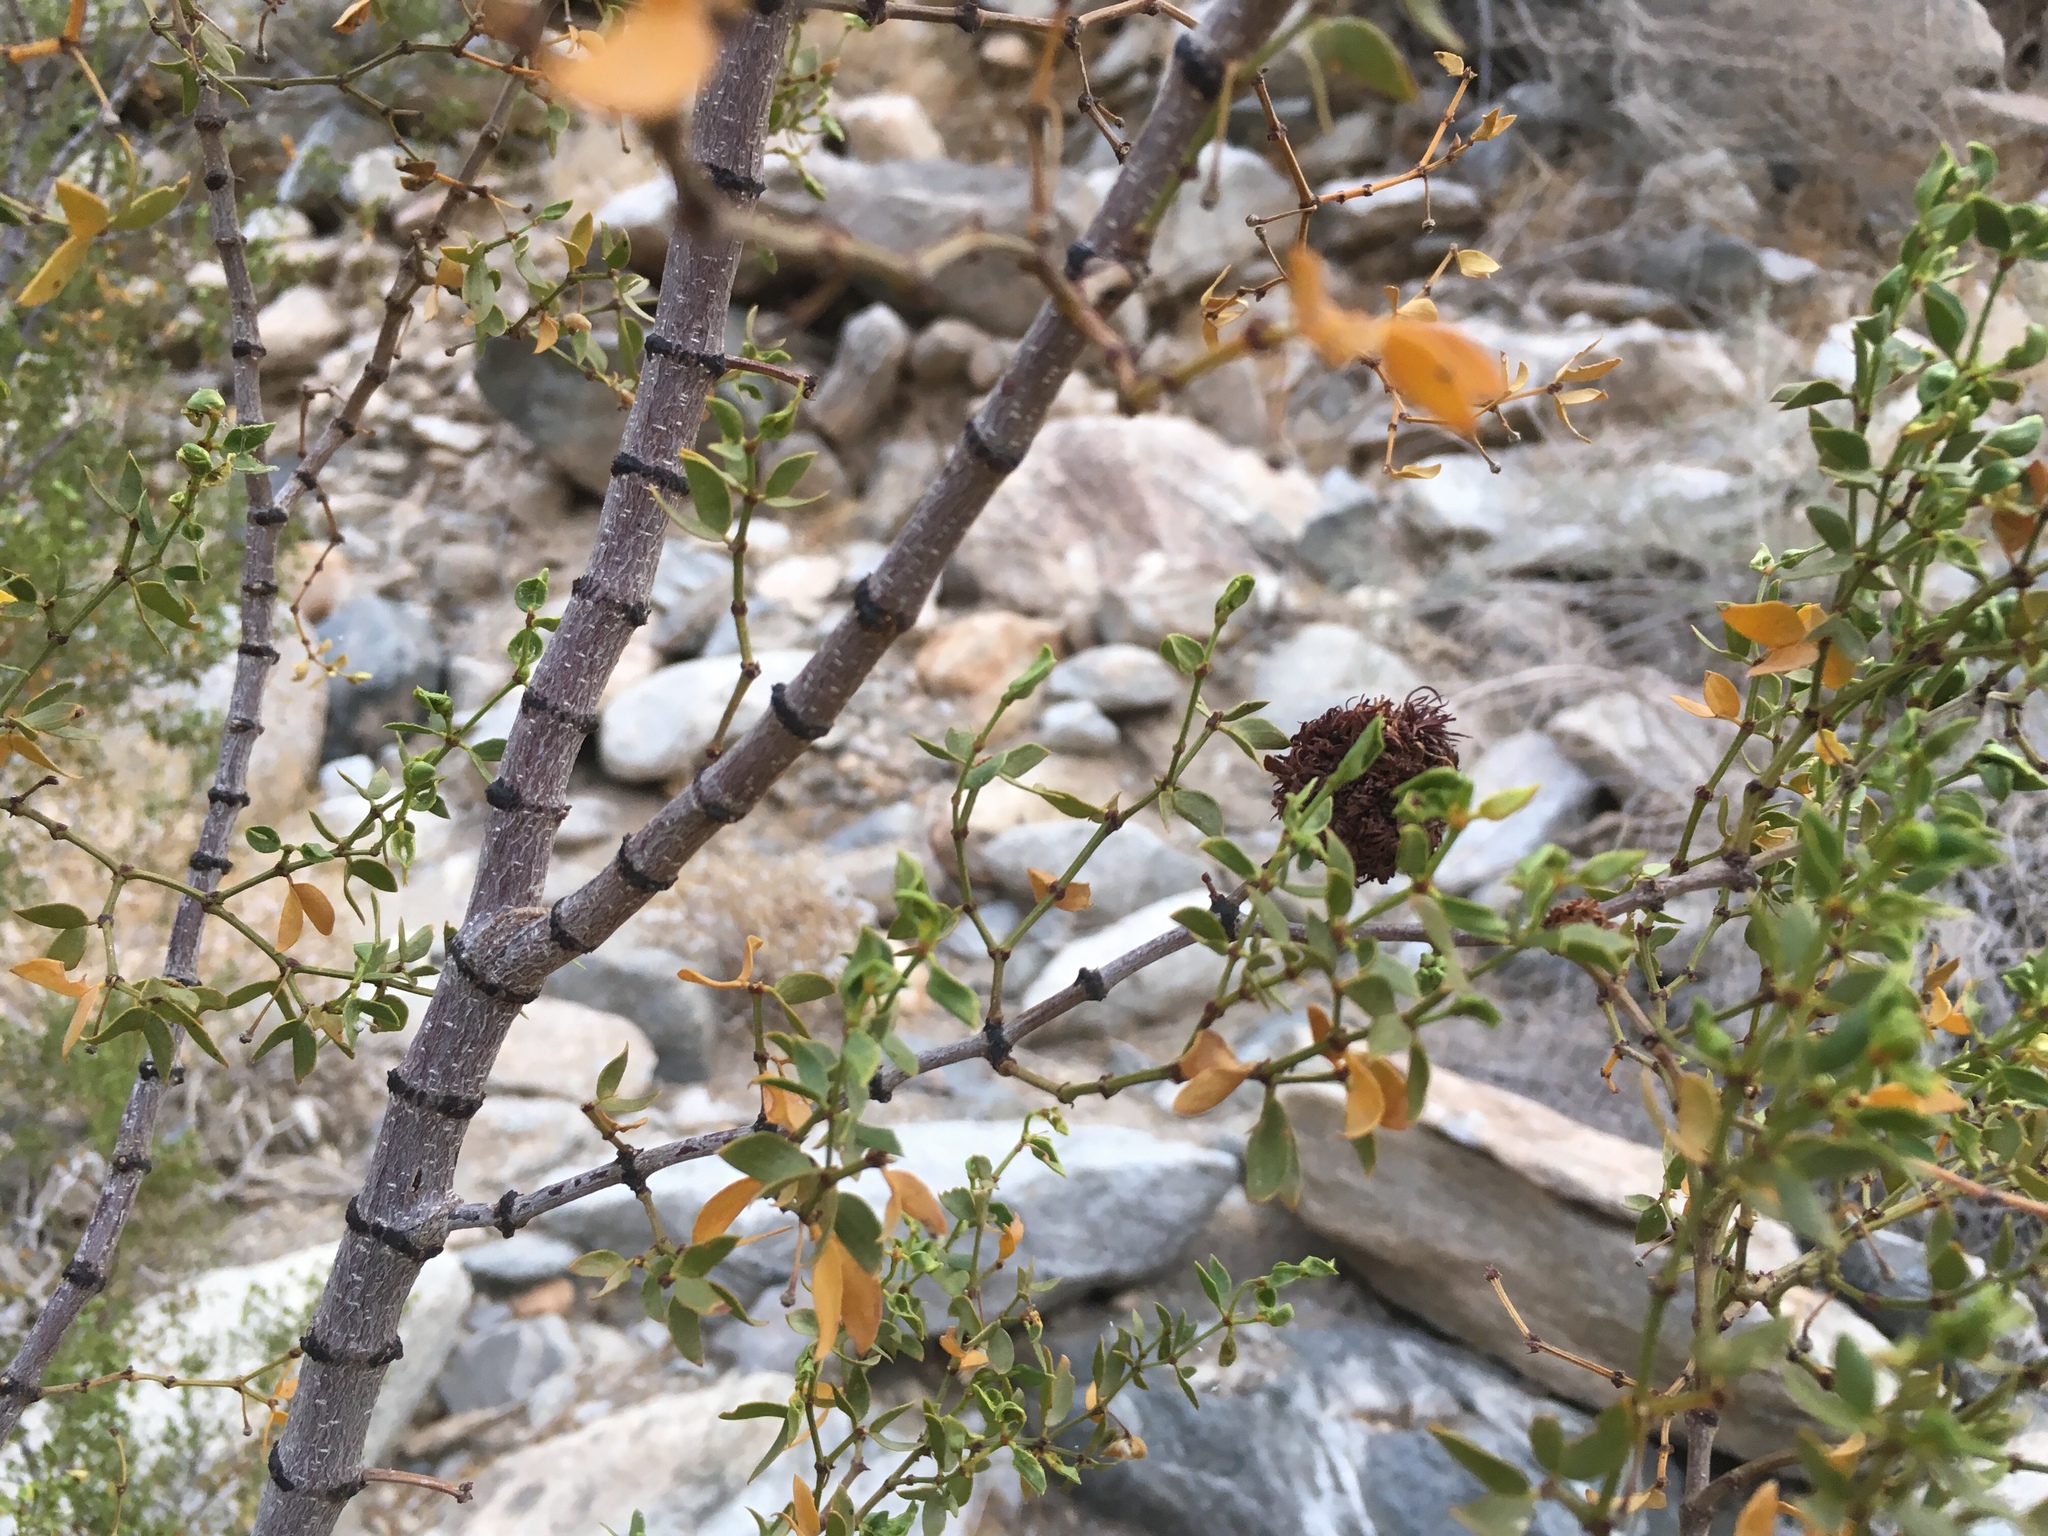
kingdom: Animalia
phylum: Arthropoda
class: Insecta
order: Diptera
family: Cecidomyiidae
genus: Asphondylia
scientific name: Asphondylia auripila
